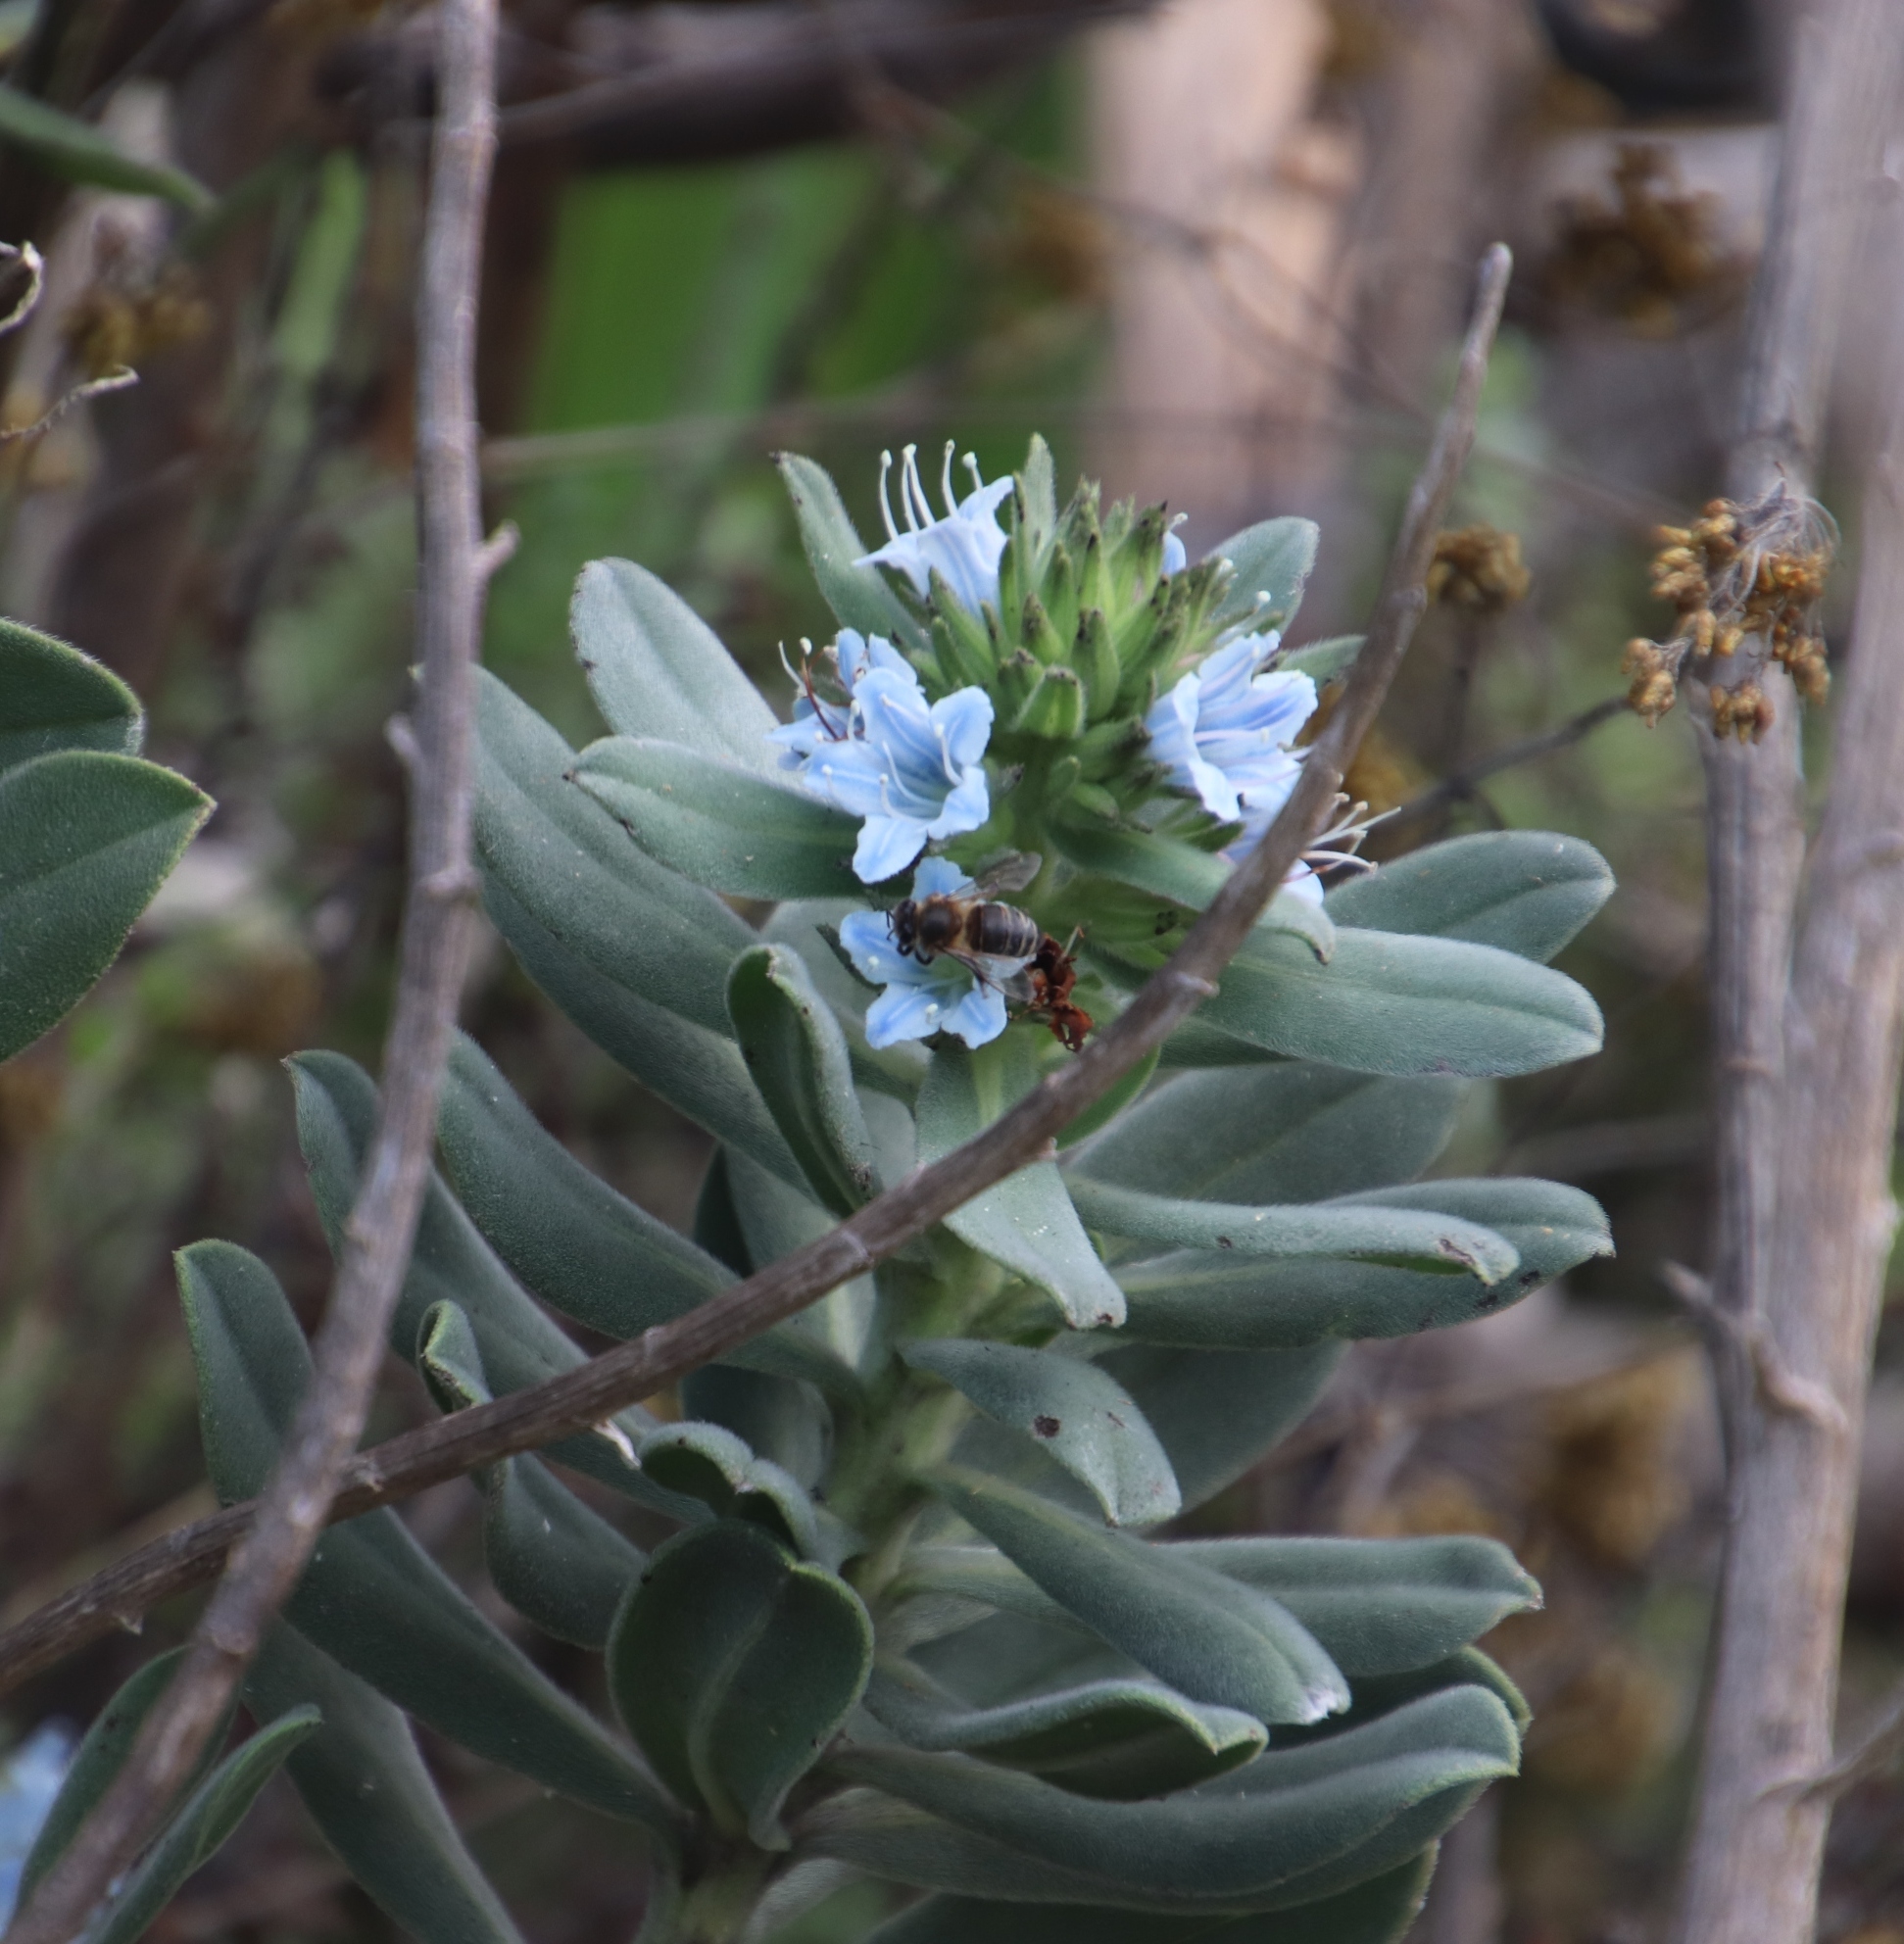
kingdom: Plantae
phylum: Tracheophyta
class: Magnoliopsida
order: Boraginales
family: Boraginaceae
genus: Lobostemon
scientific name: Lobostemon montanus
